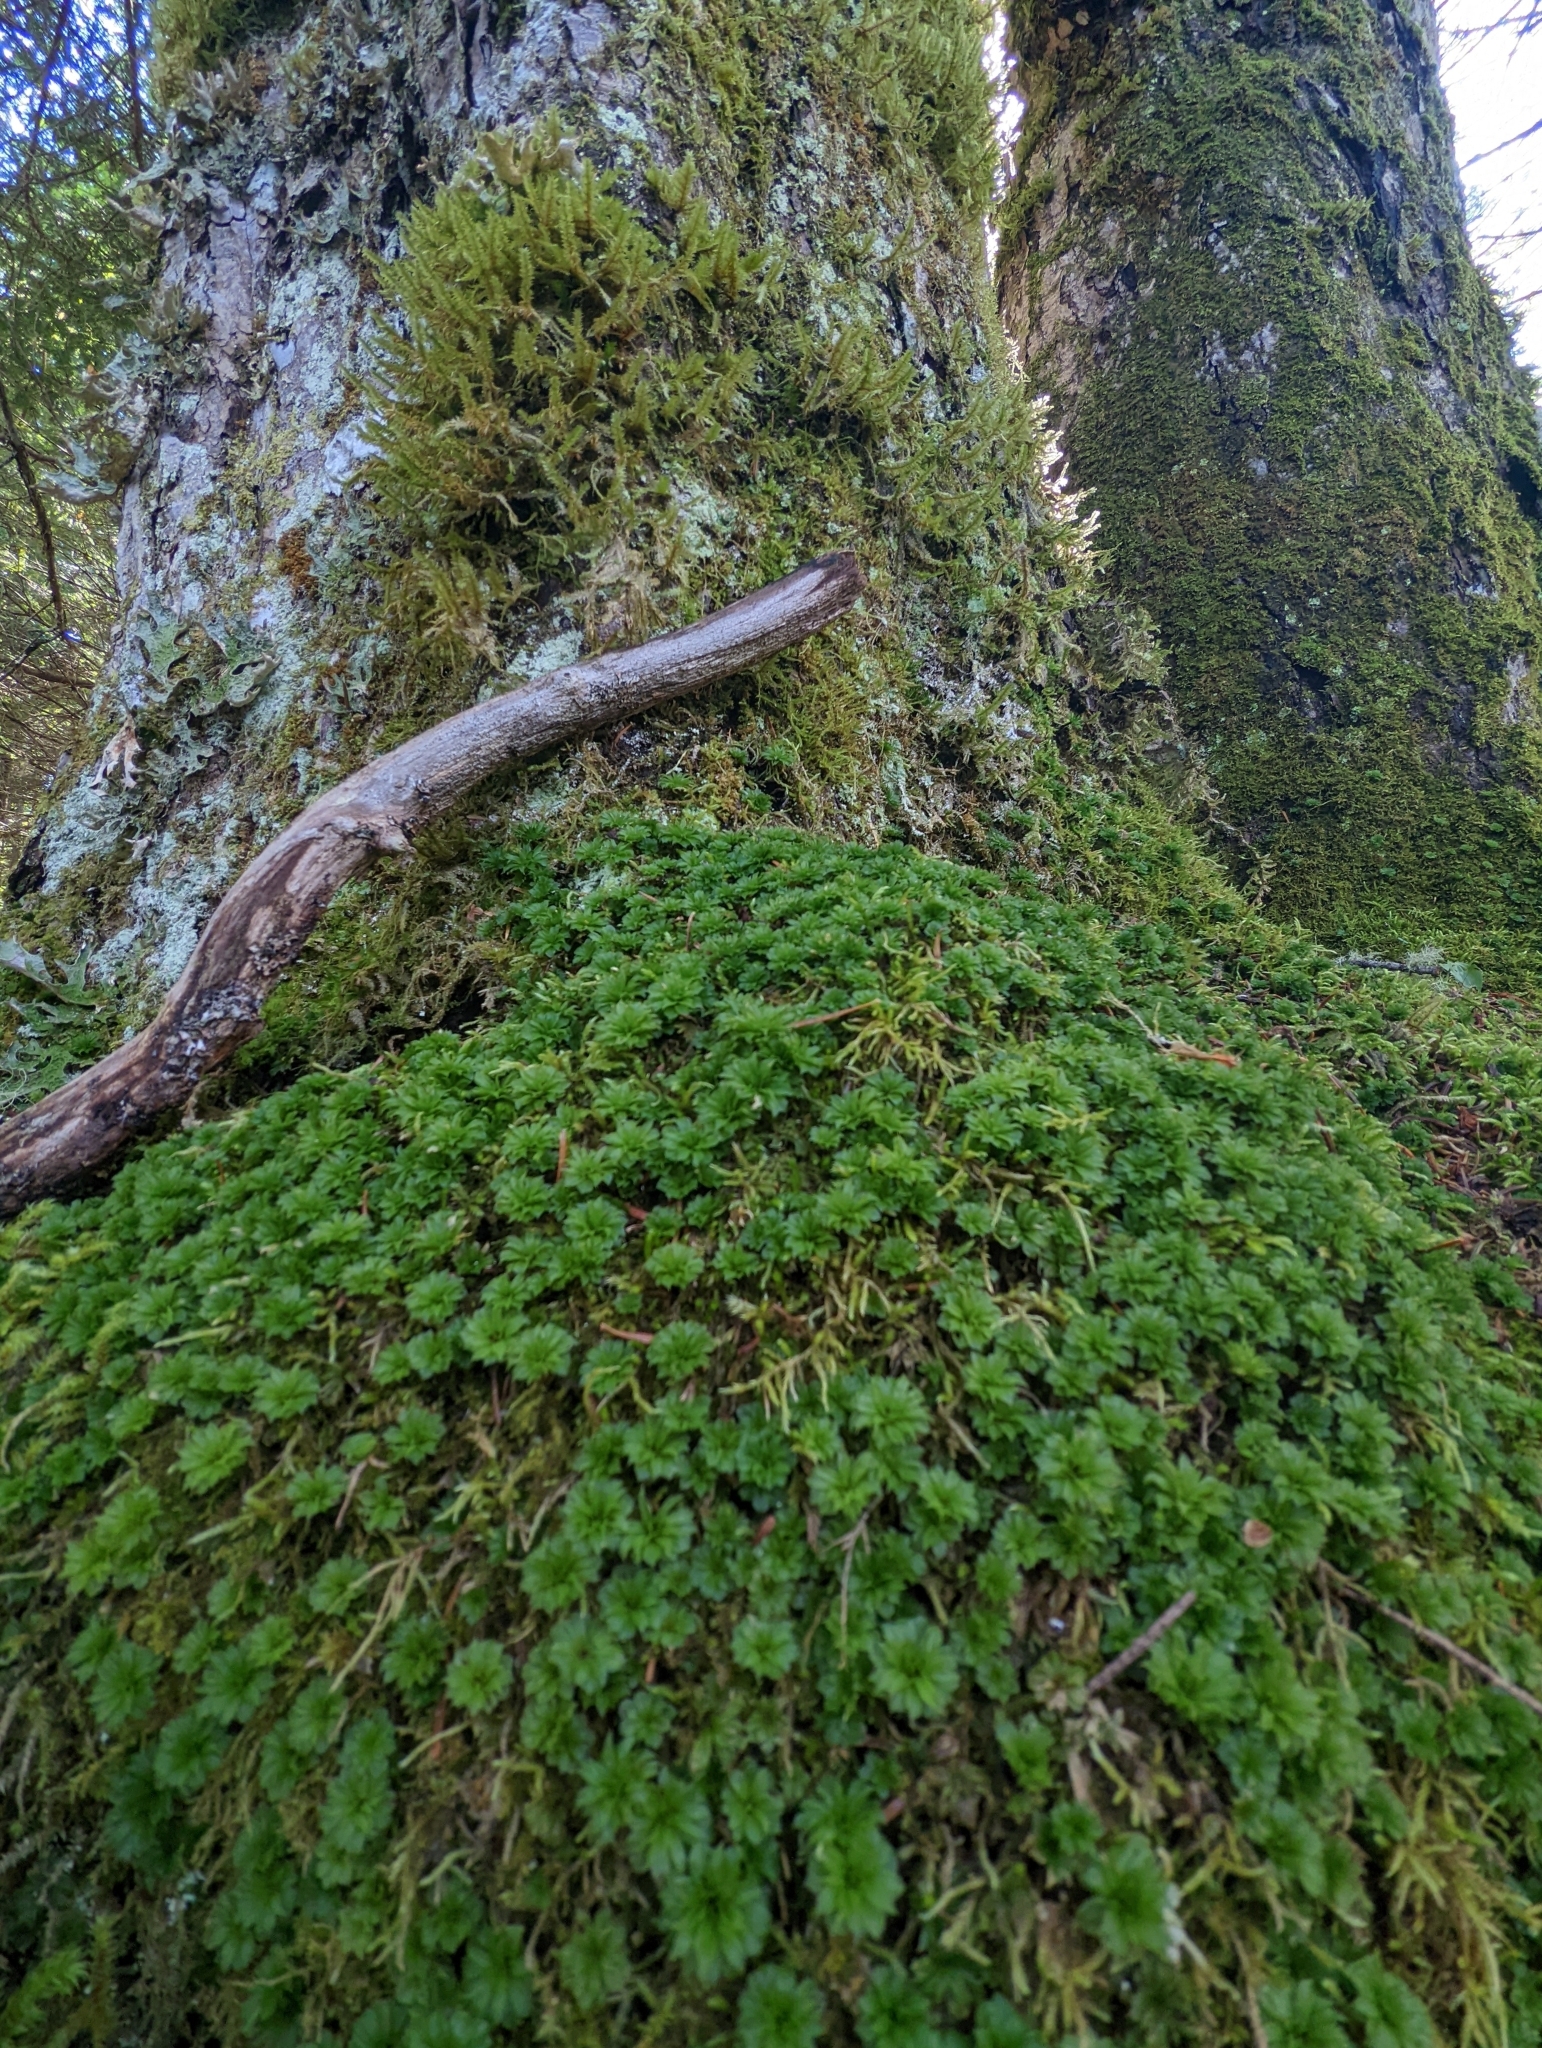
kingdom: Plantae
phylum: Bryophyta
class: Bryopsida
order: Bryales
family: Bryaceae
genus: Rhodobryum
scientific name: Rhodobryum ontariense
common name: Ontario rhodobryum moss
